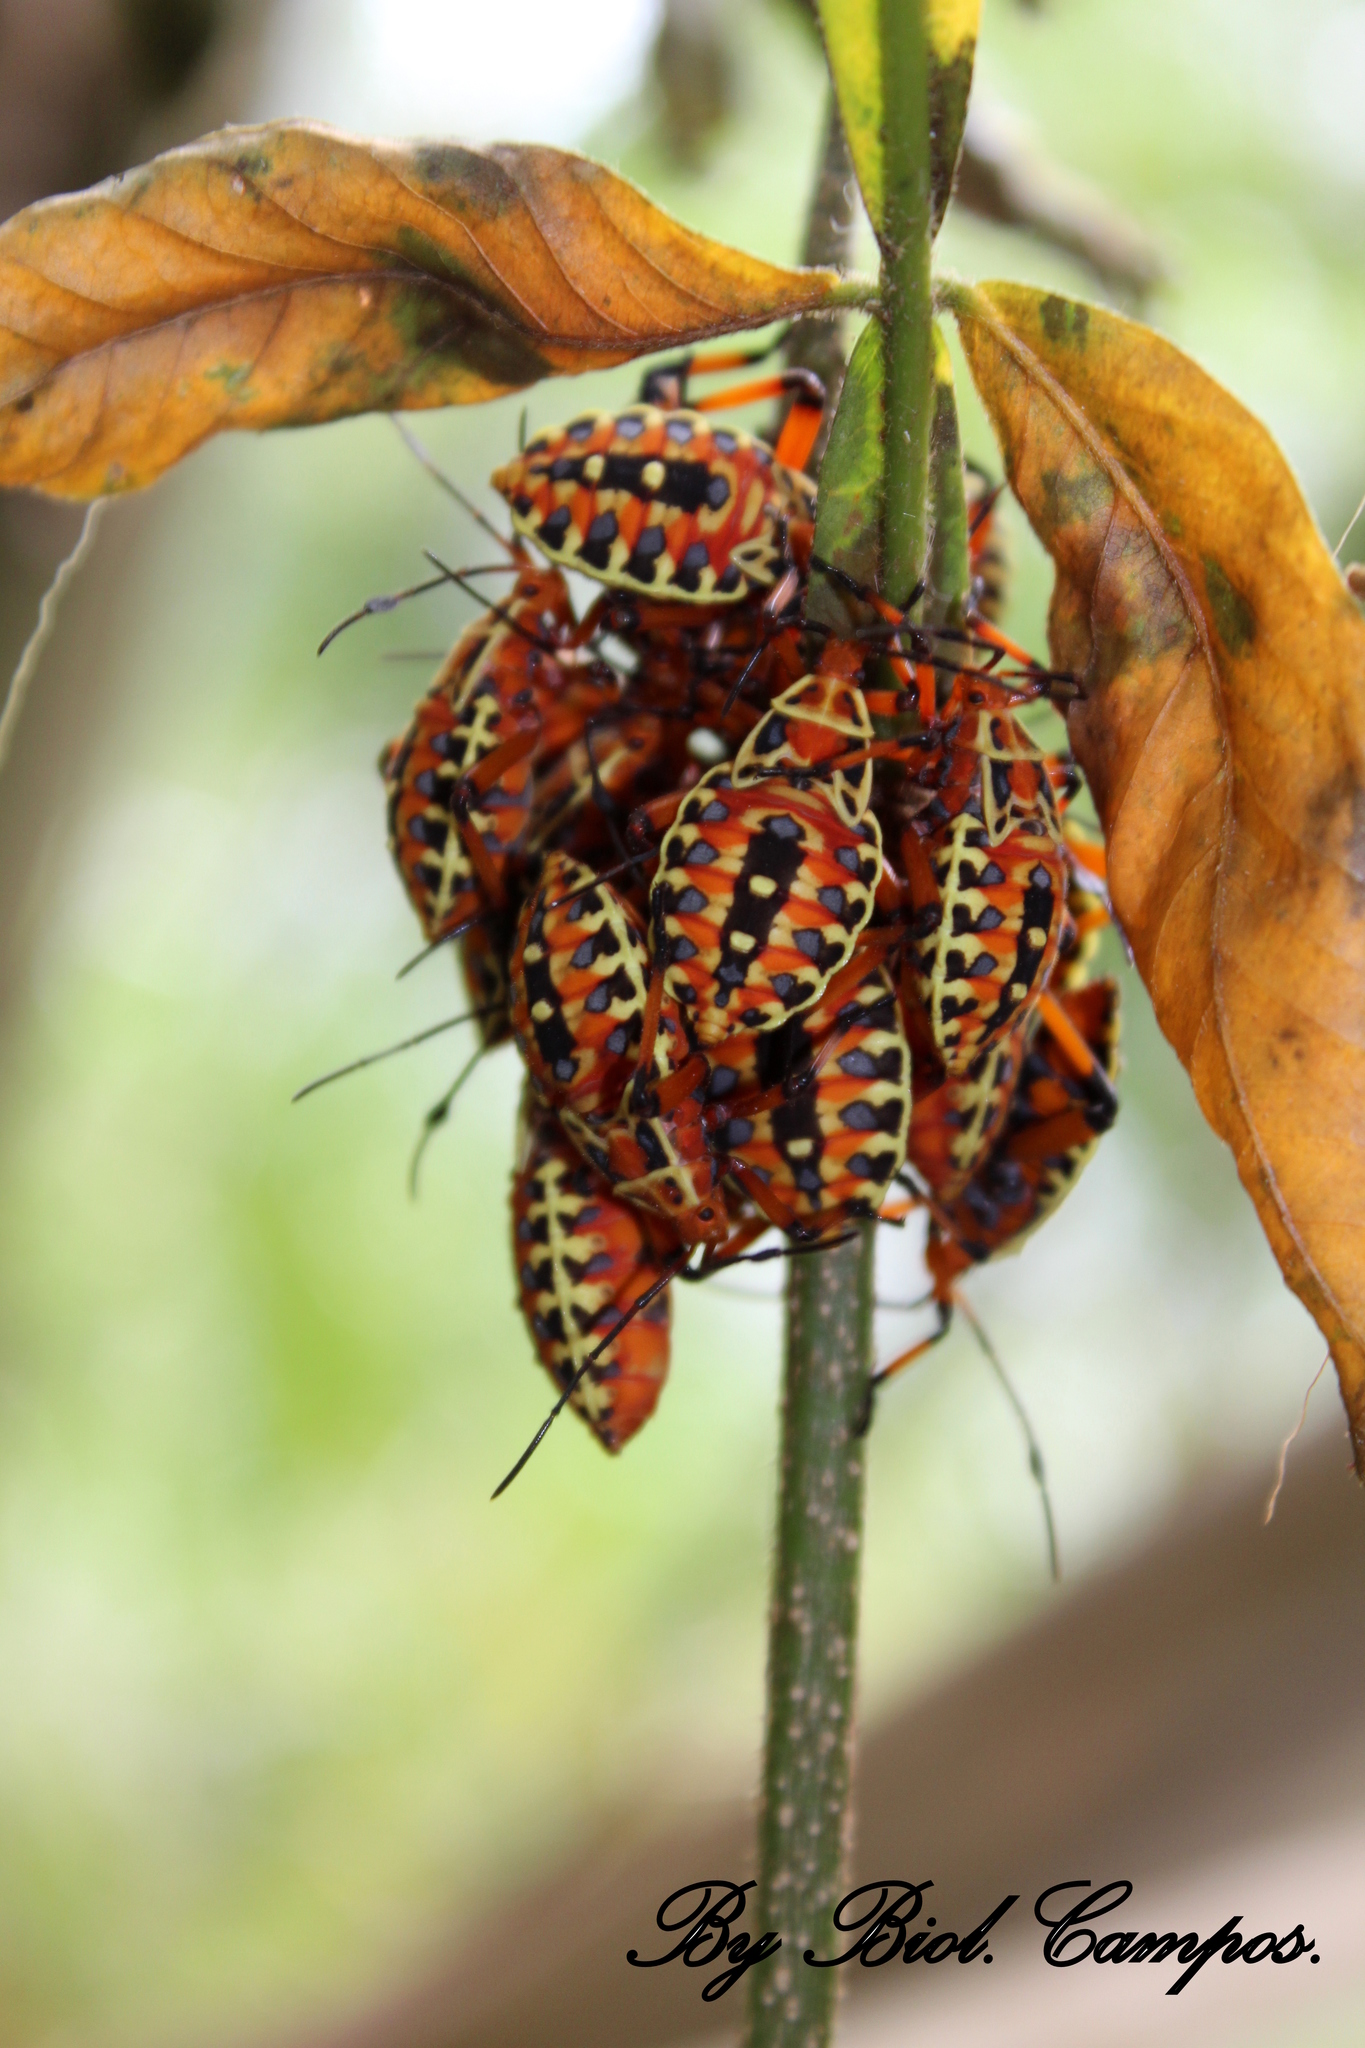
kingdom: Animalia
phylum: Arthropoda
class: Insecta
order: Hemiptera
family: Coreidae
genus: Pachylis
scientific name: Pachylis nervosus
